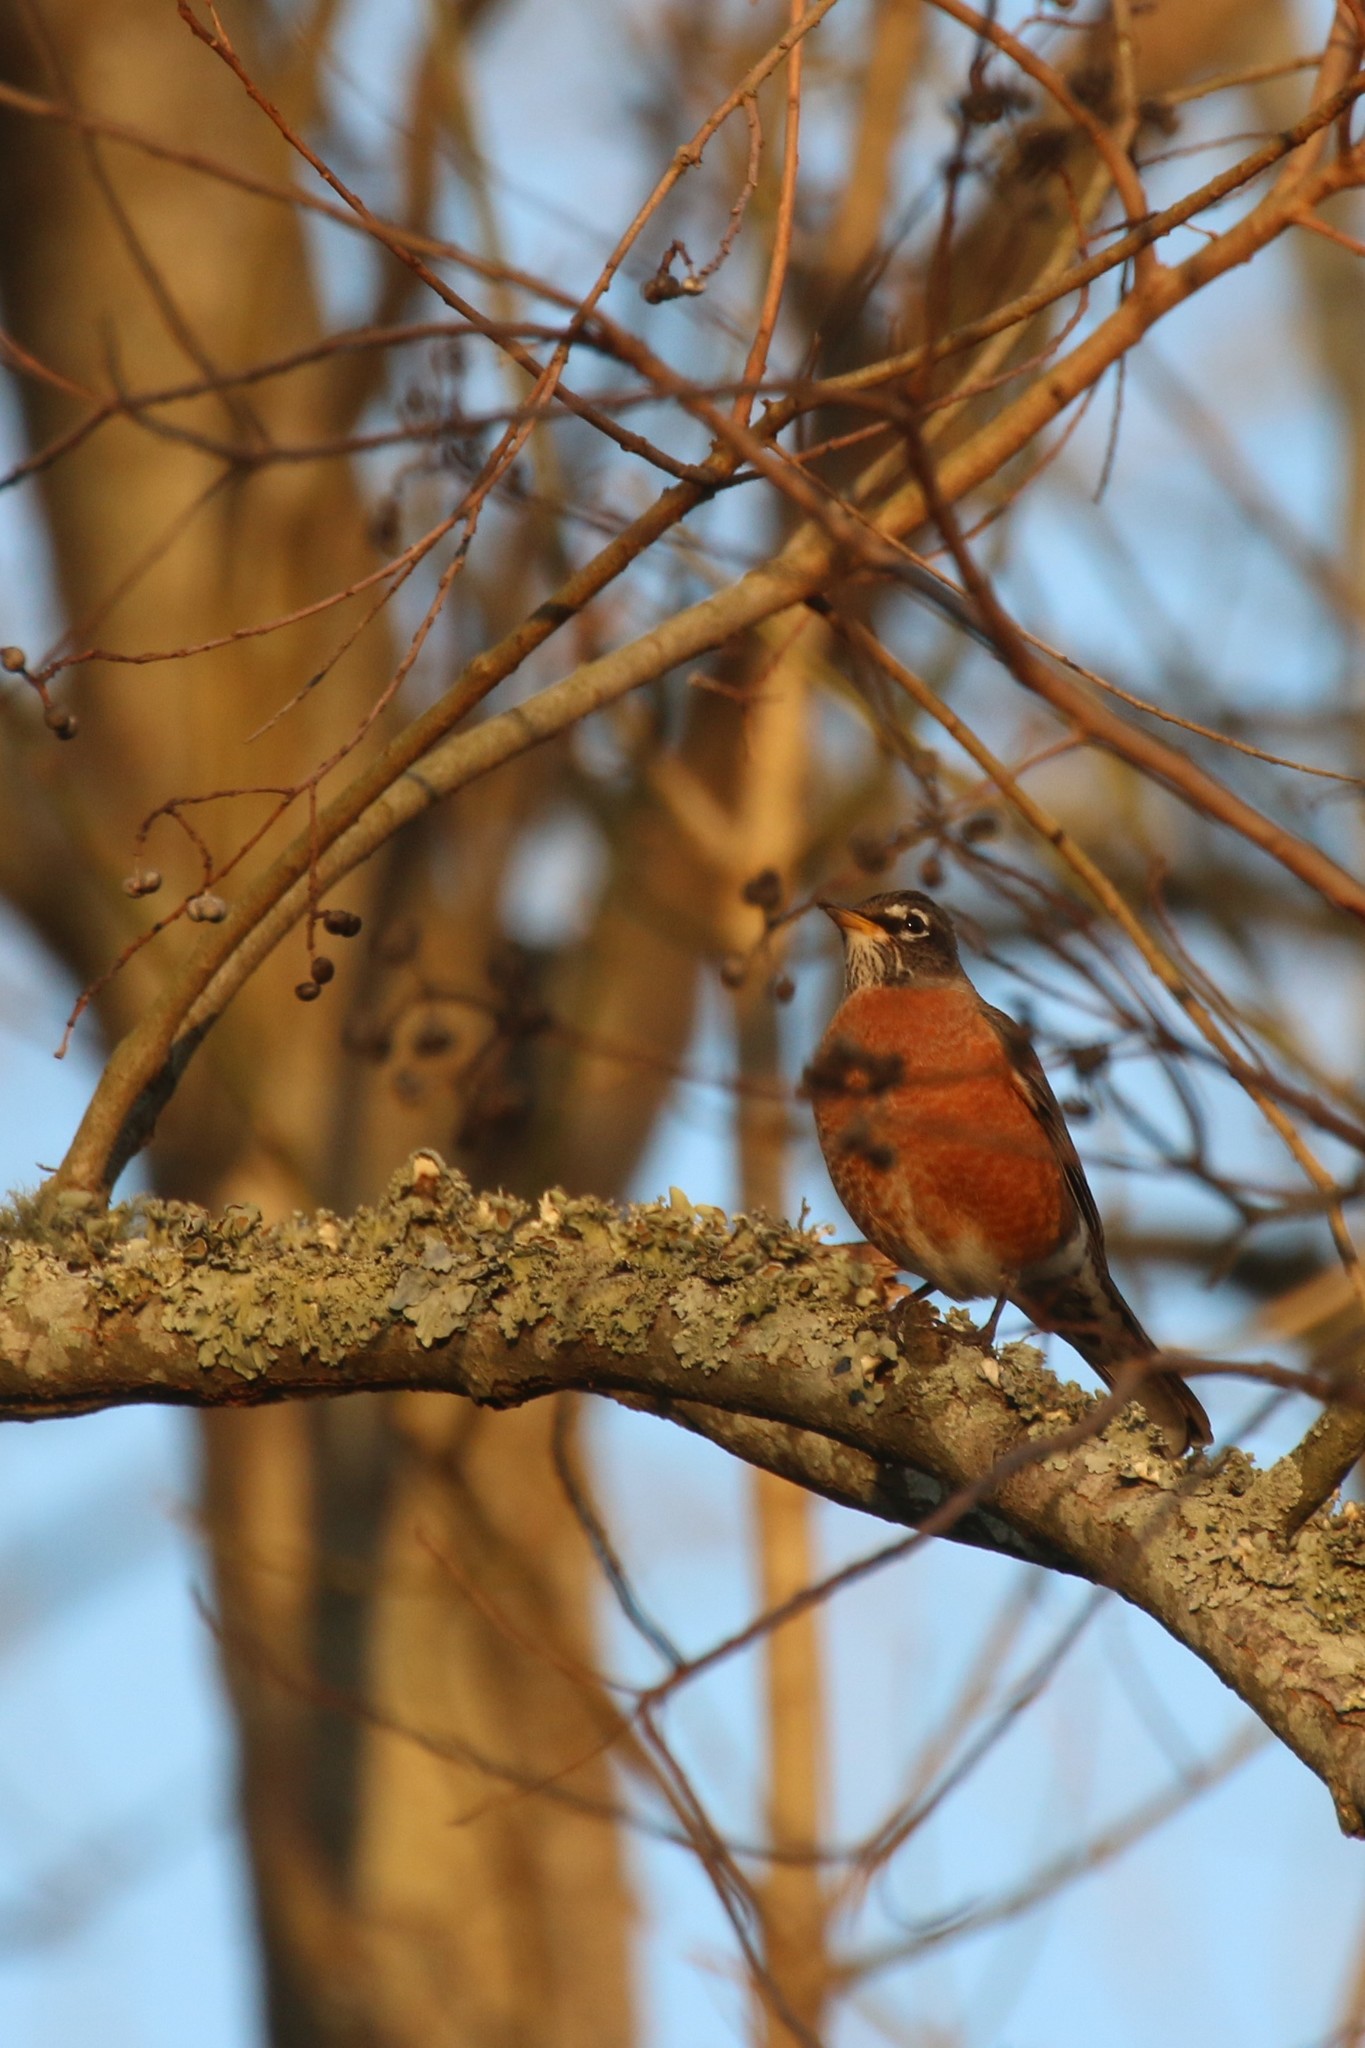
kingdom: Animalia
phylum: Chordata
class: Aves
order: Passeriformes
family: Turdidae
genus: Turdus
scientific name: Turdus migratorius
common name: American robin
